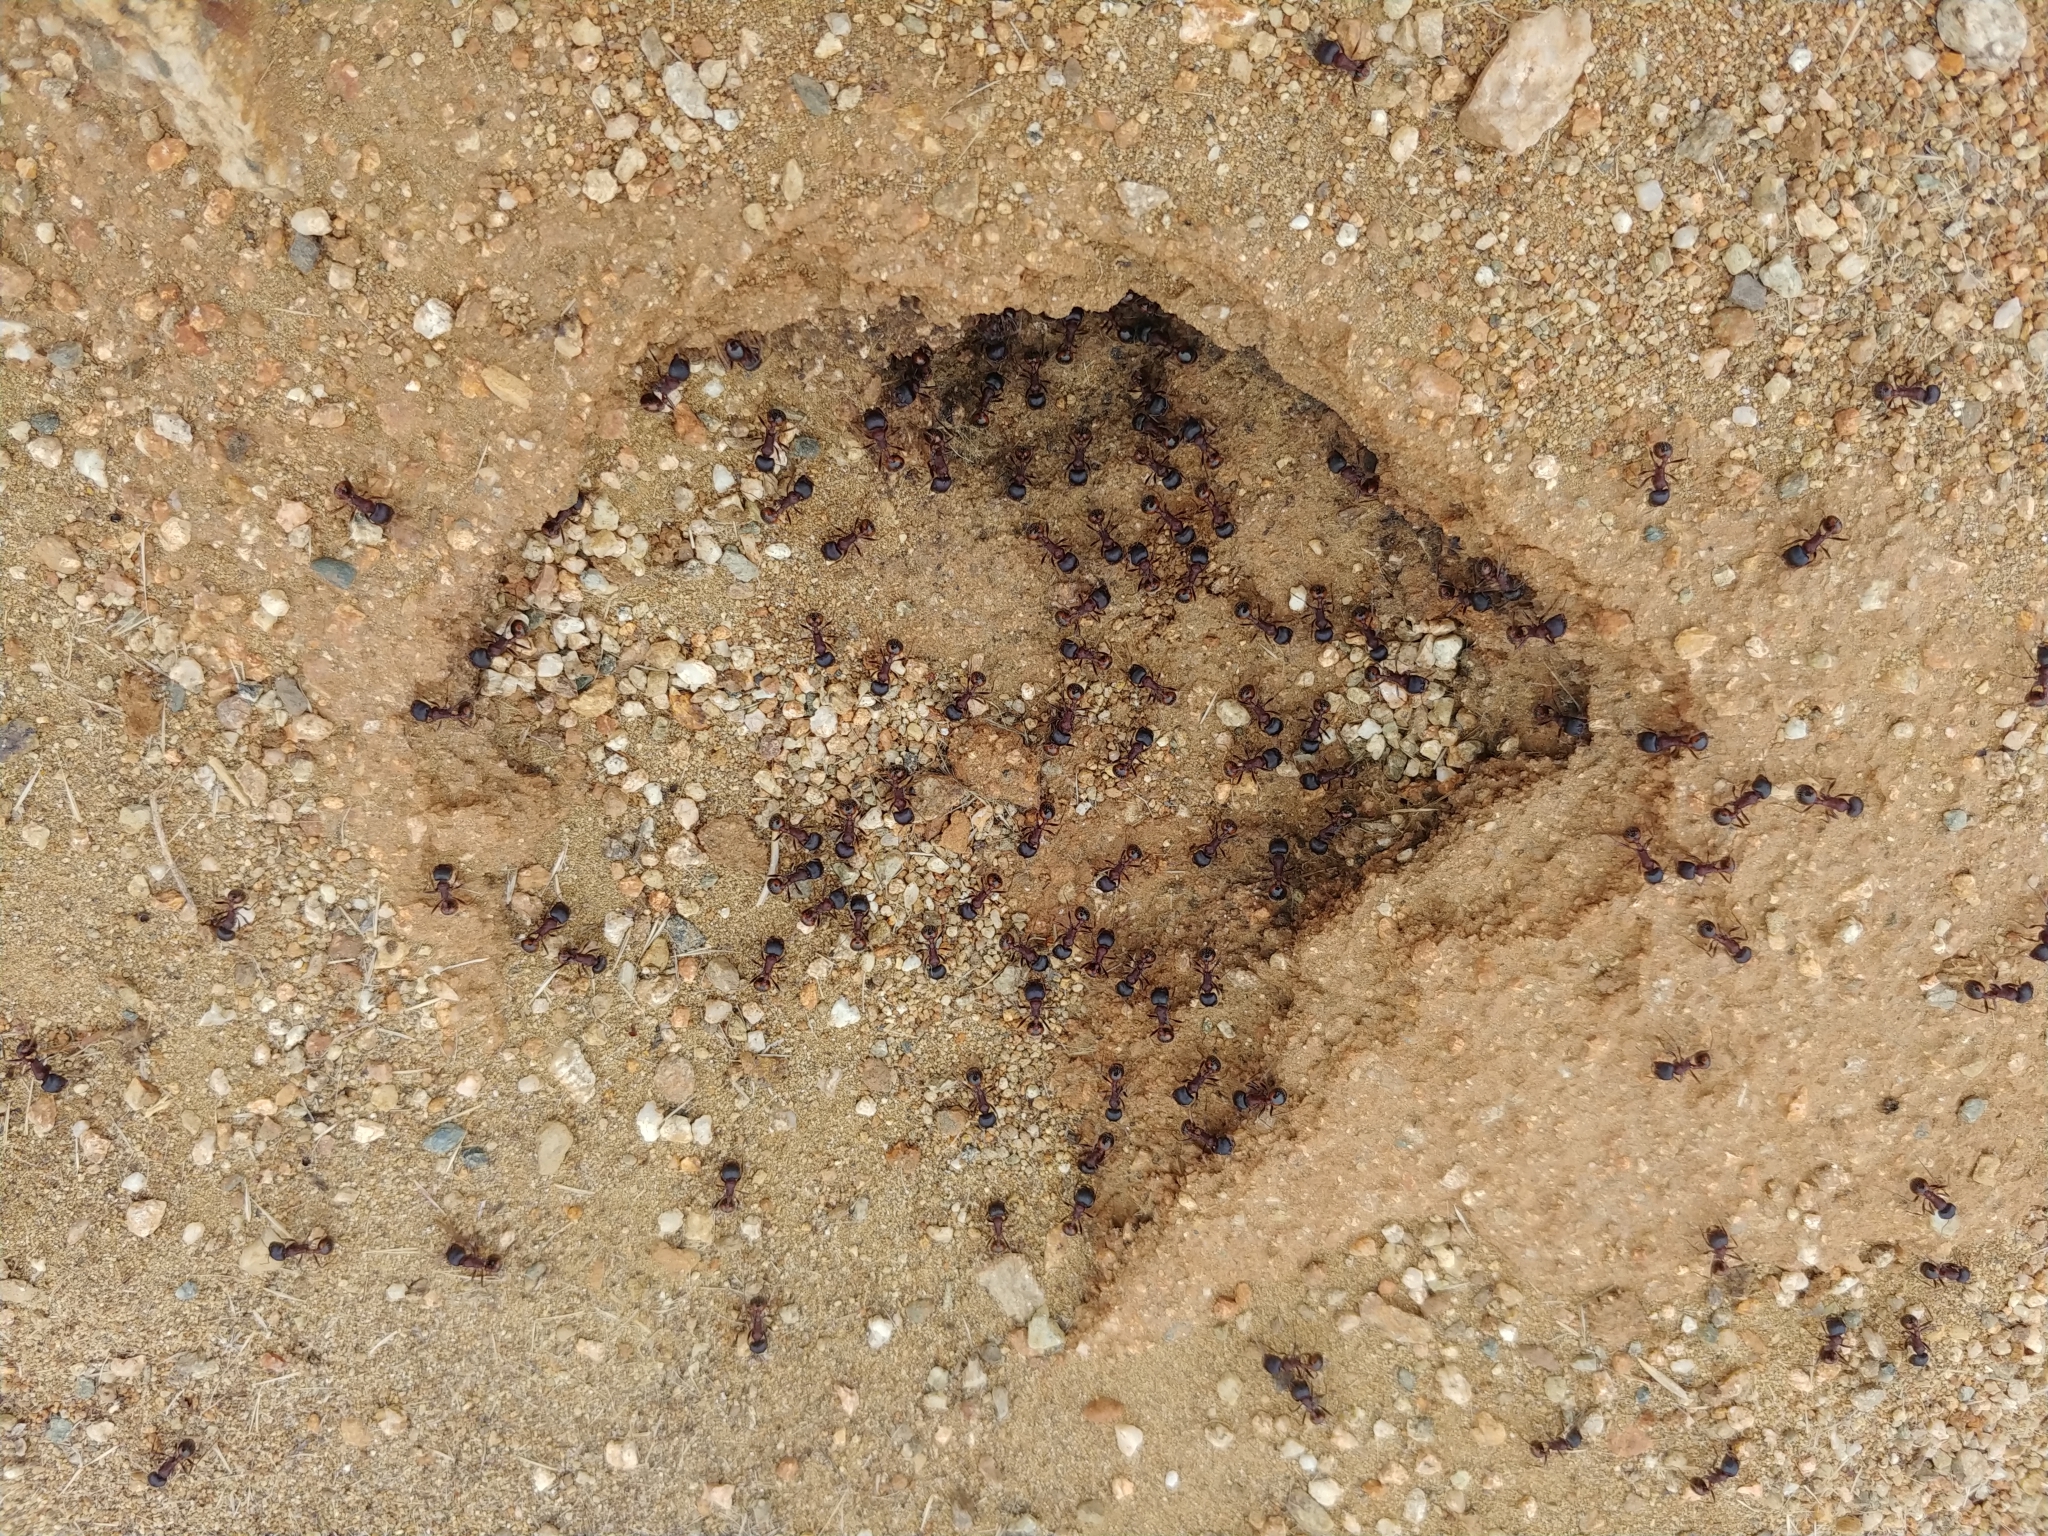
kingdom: Animalia
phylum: Arthropoda
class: Insecta
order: Hymenoptera
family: Formicidae
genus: Pogonomyrmex
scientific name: Pogonomyrmex rugosus
